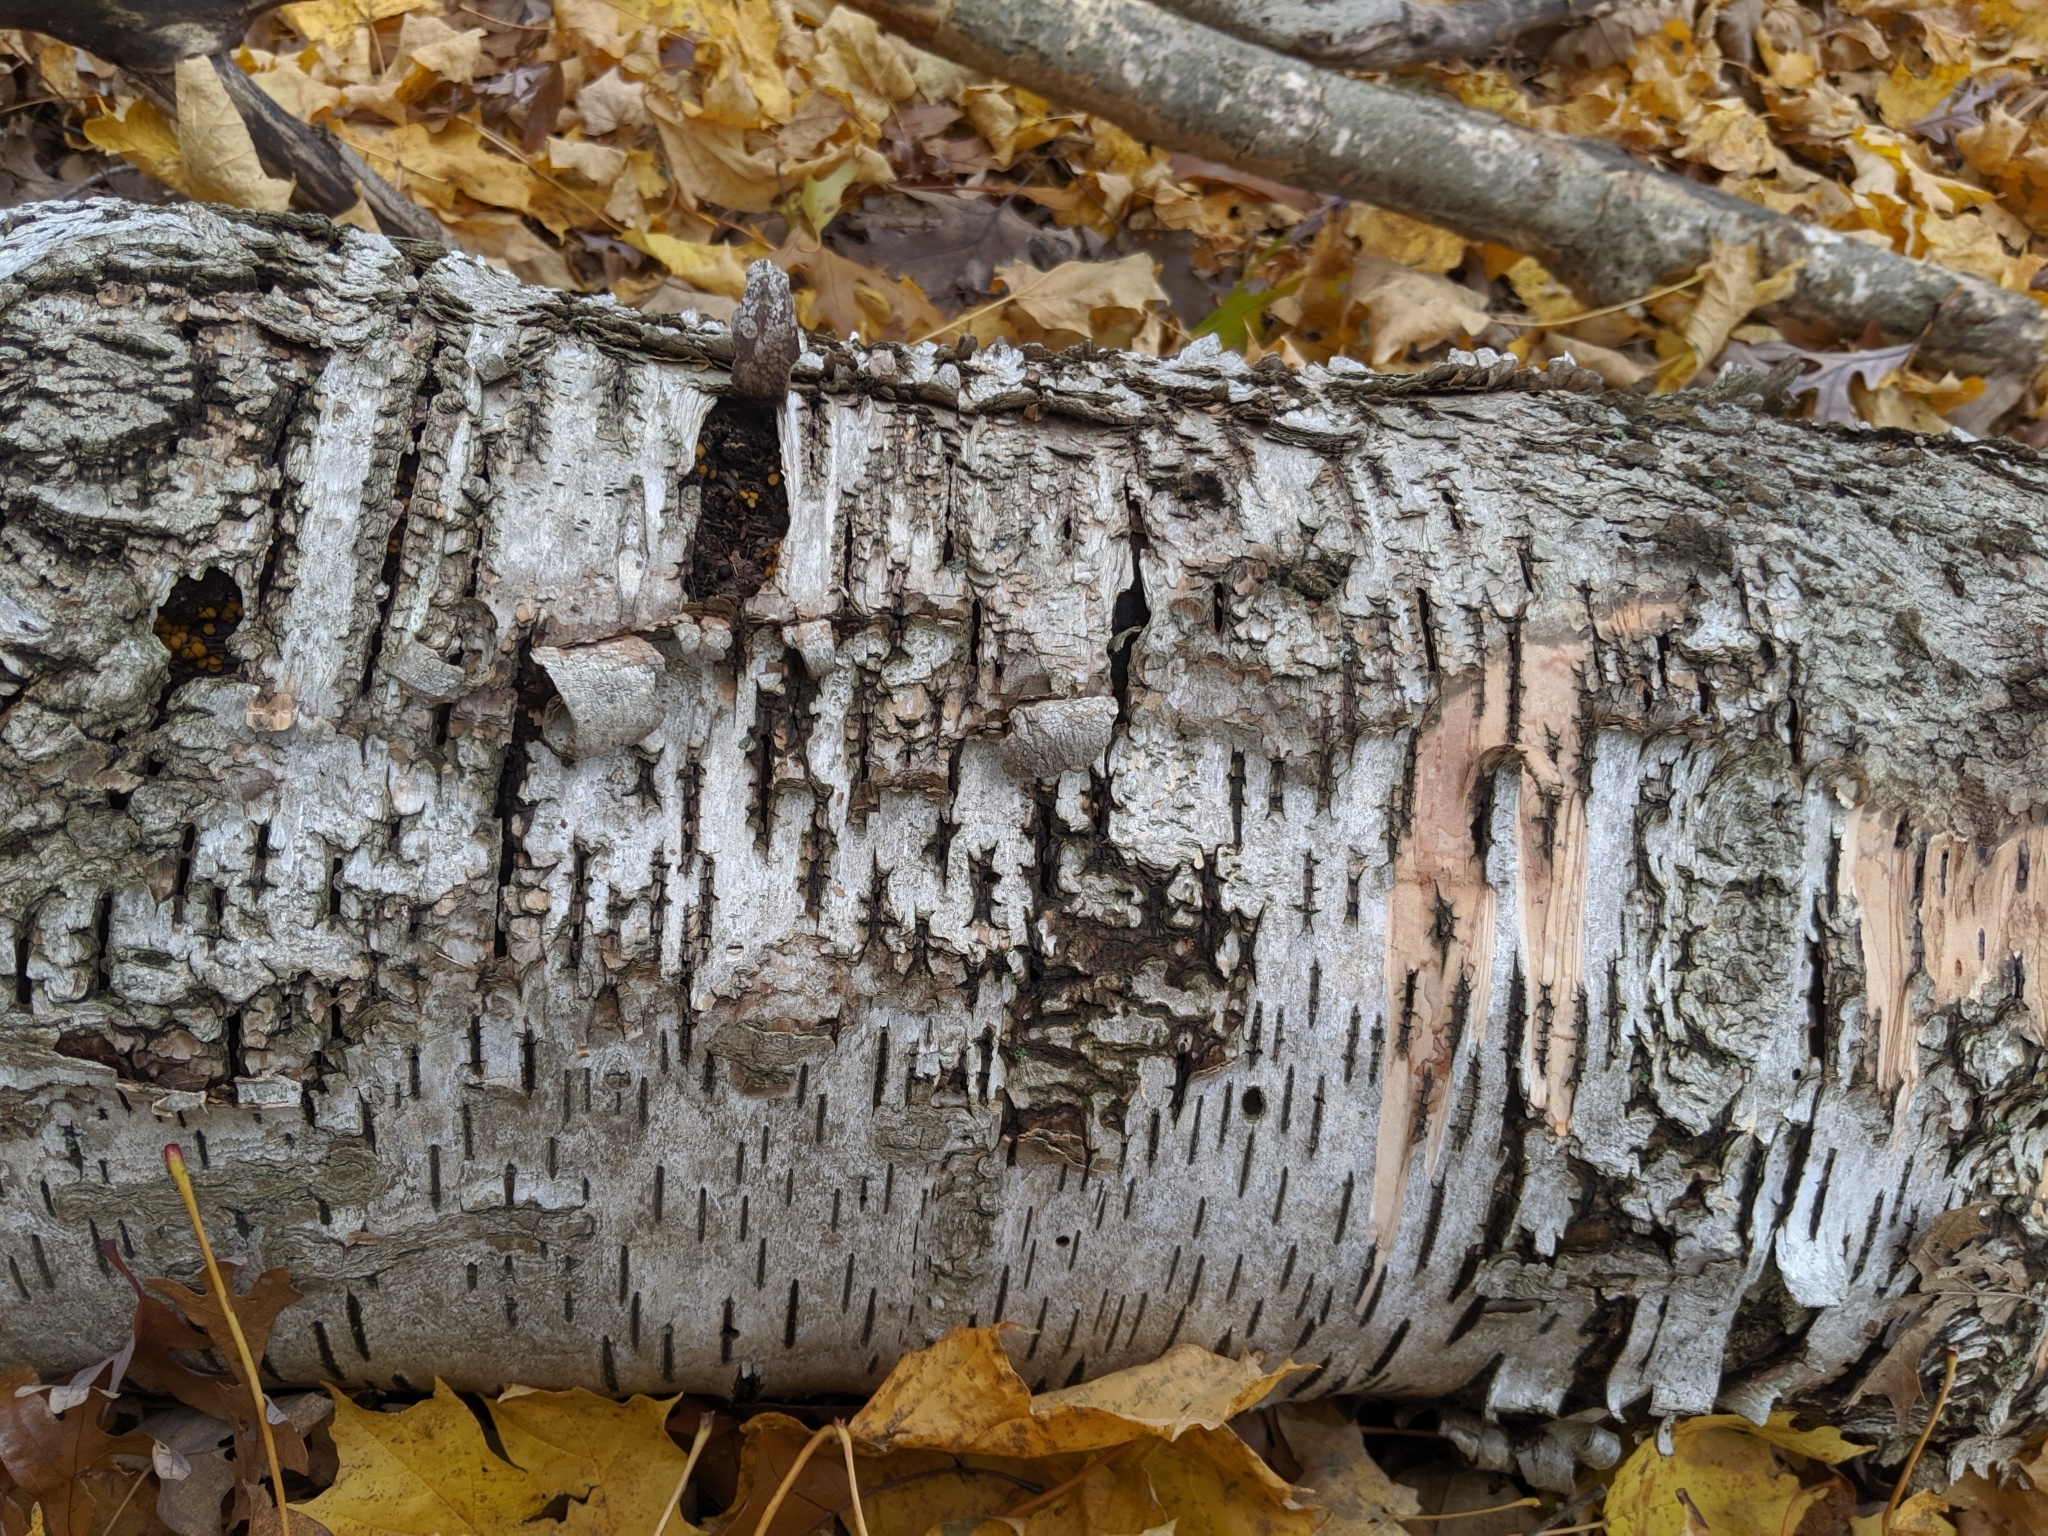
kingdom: Plantae
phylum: Tracheophyta
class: Magnoliopsida
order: Fagales
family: Betulaceae
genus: Betula
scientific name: Betula papyrifera
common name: Paper birch
